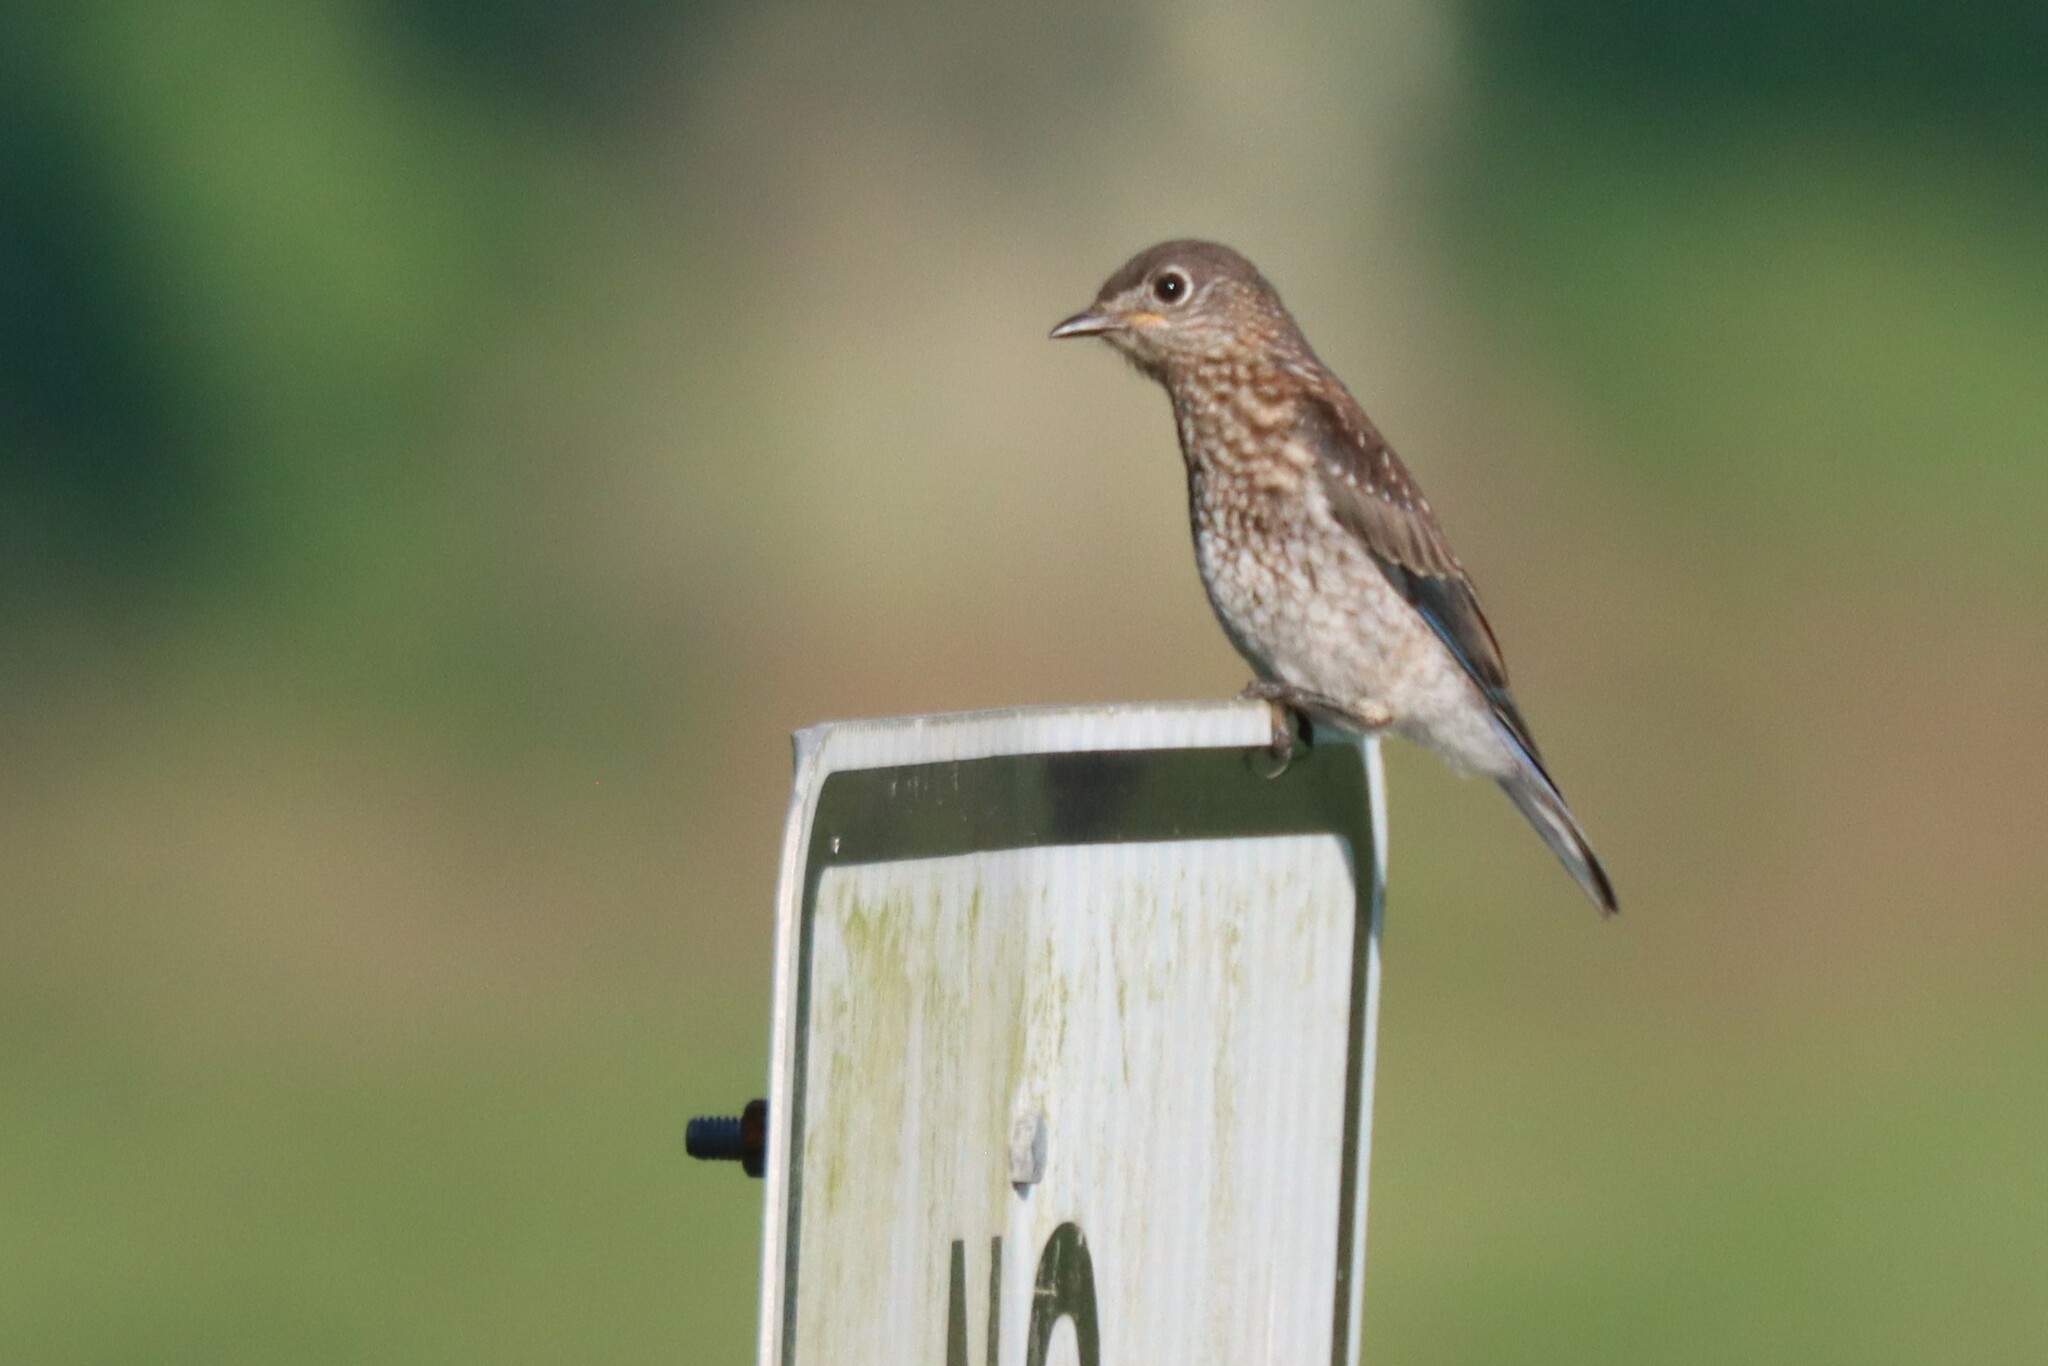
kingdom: Animalia
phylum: Chordata
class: Aves
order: Passeriformes
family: Turdidae
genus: Sialia
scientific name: Sialia sialis
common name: Eastern bluebird
